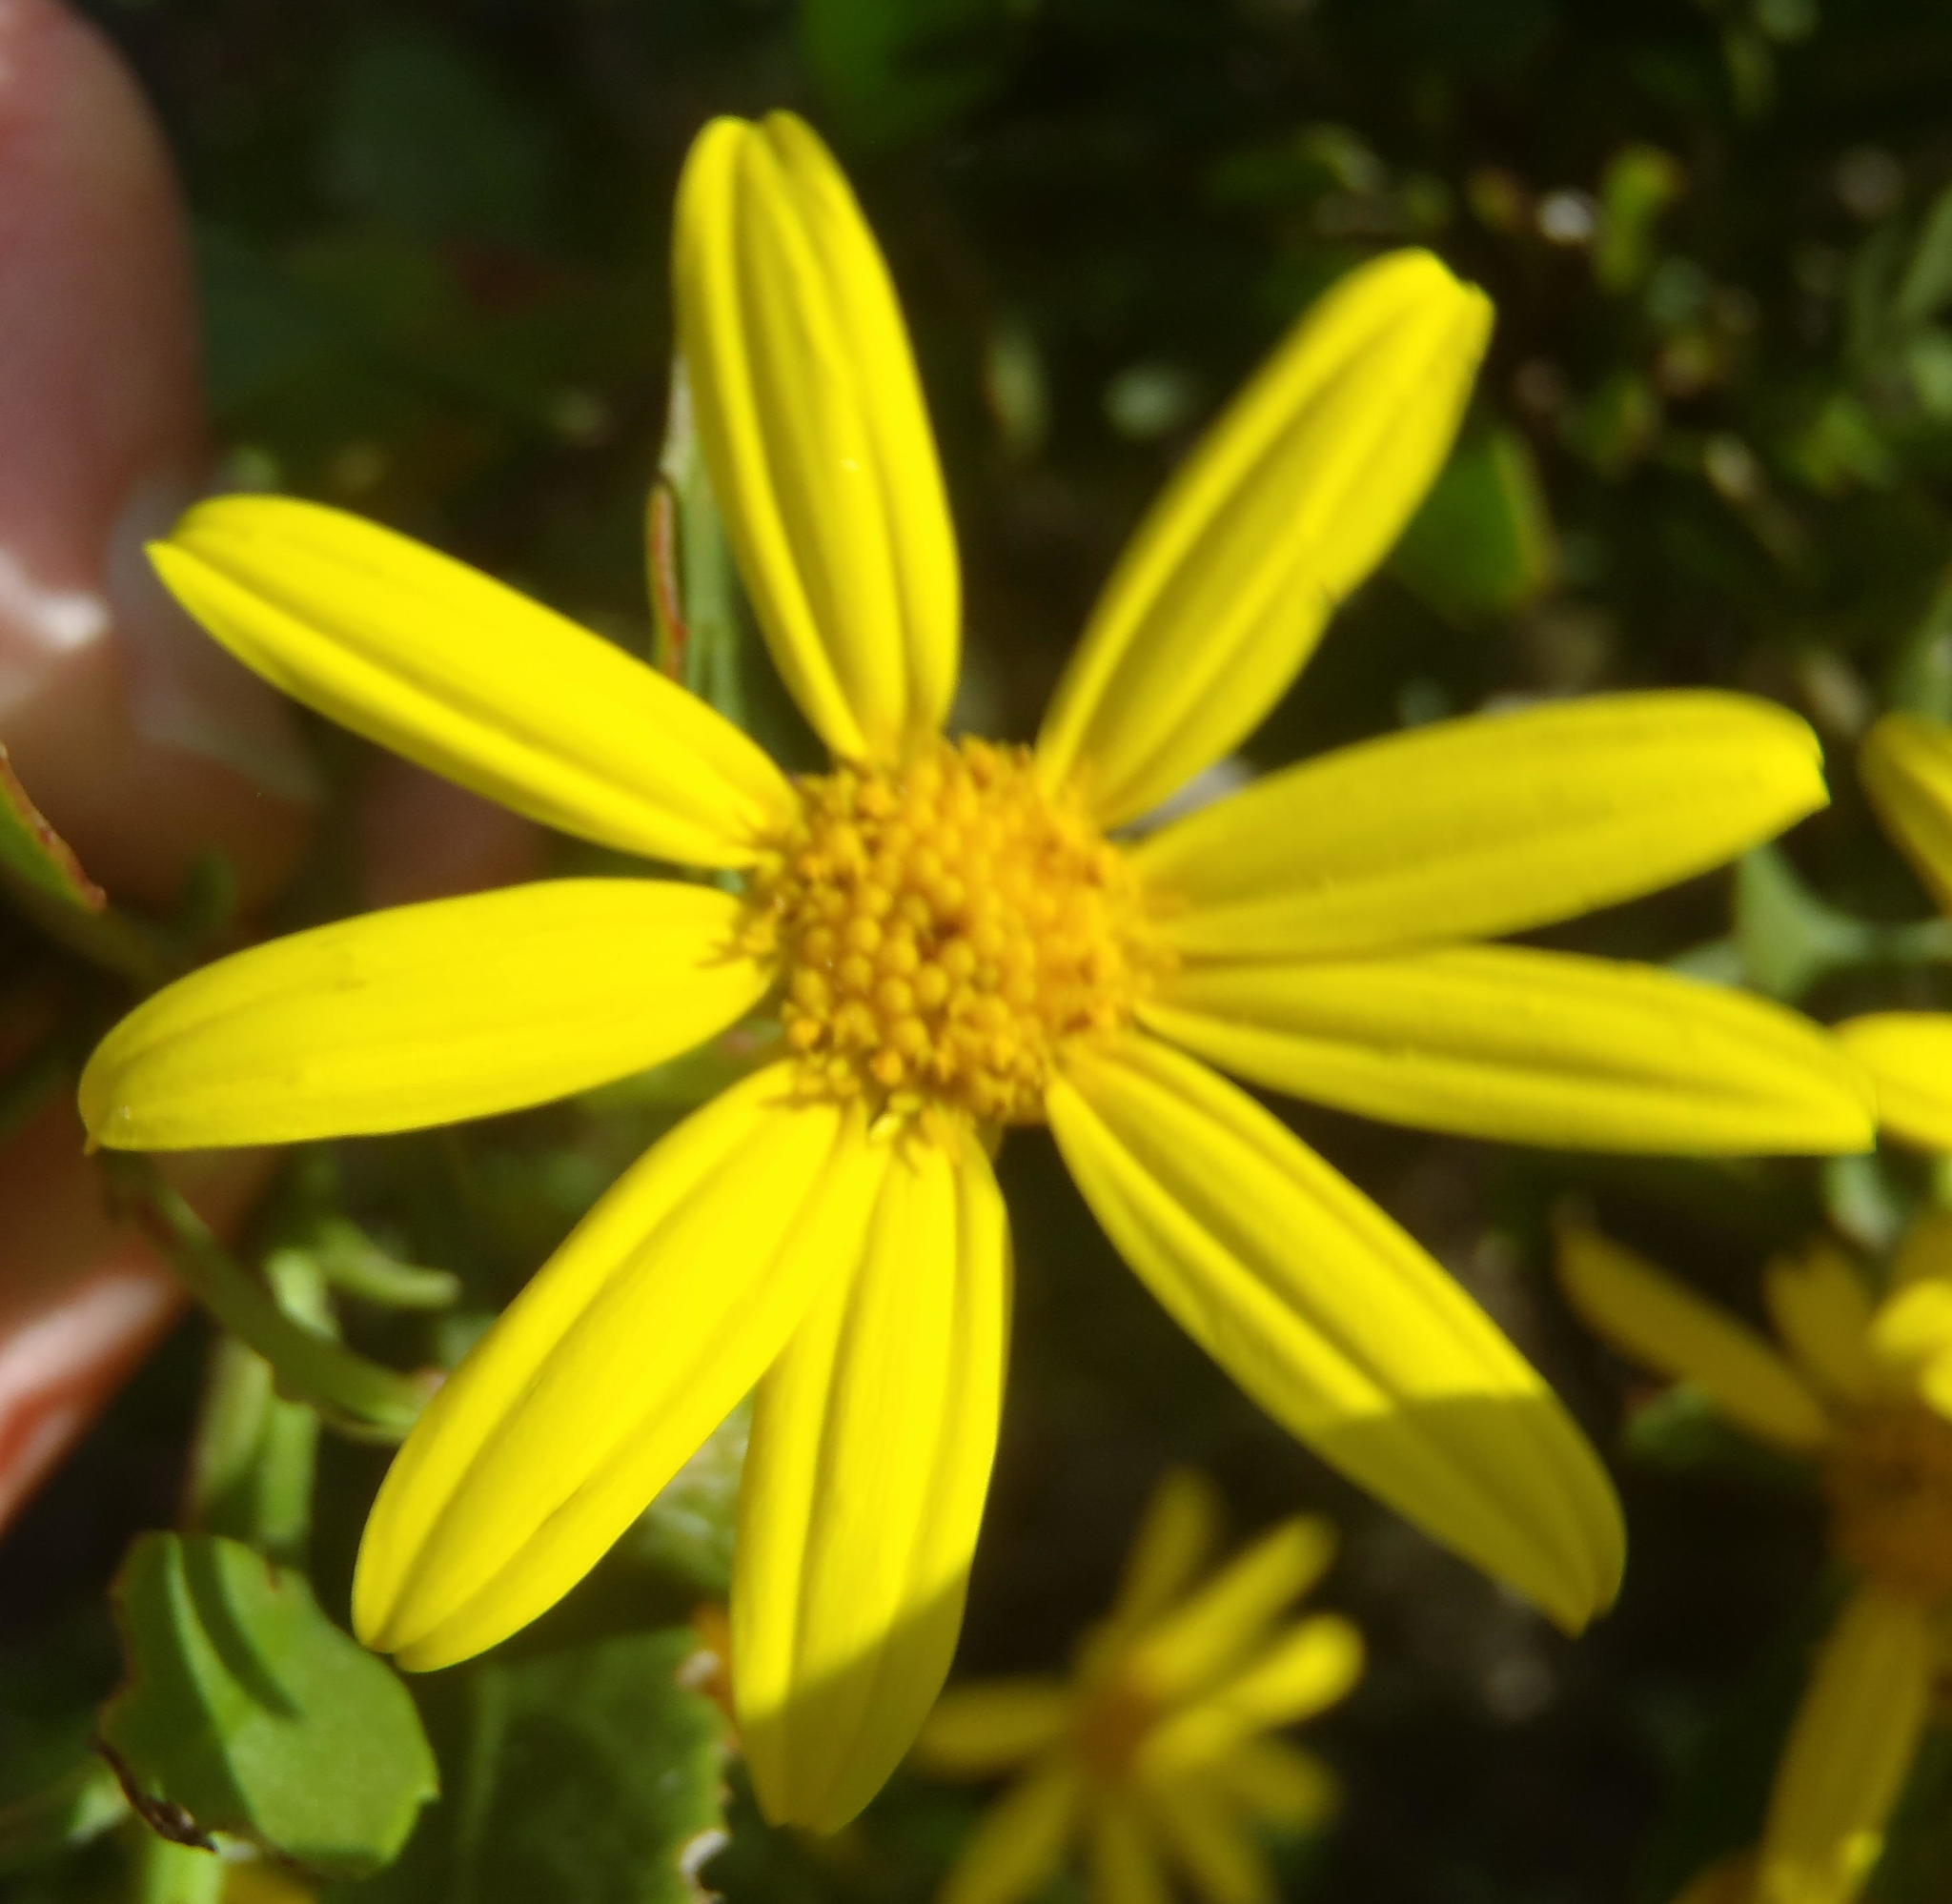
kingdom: Plantae
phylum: Tracheophyta
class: Magnoliopsida
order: Asterales
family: Asteraceae
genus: Osteospermum
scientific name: Osteospermum moniliferum
